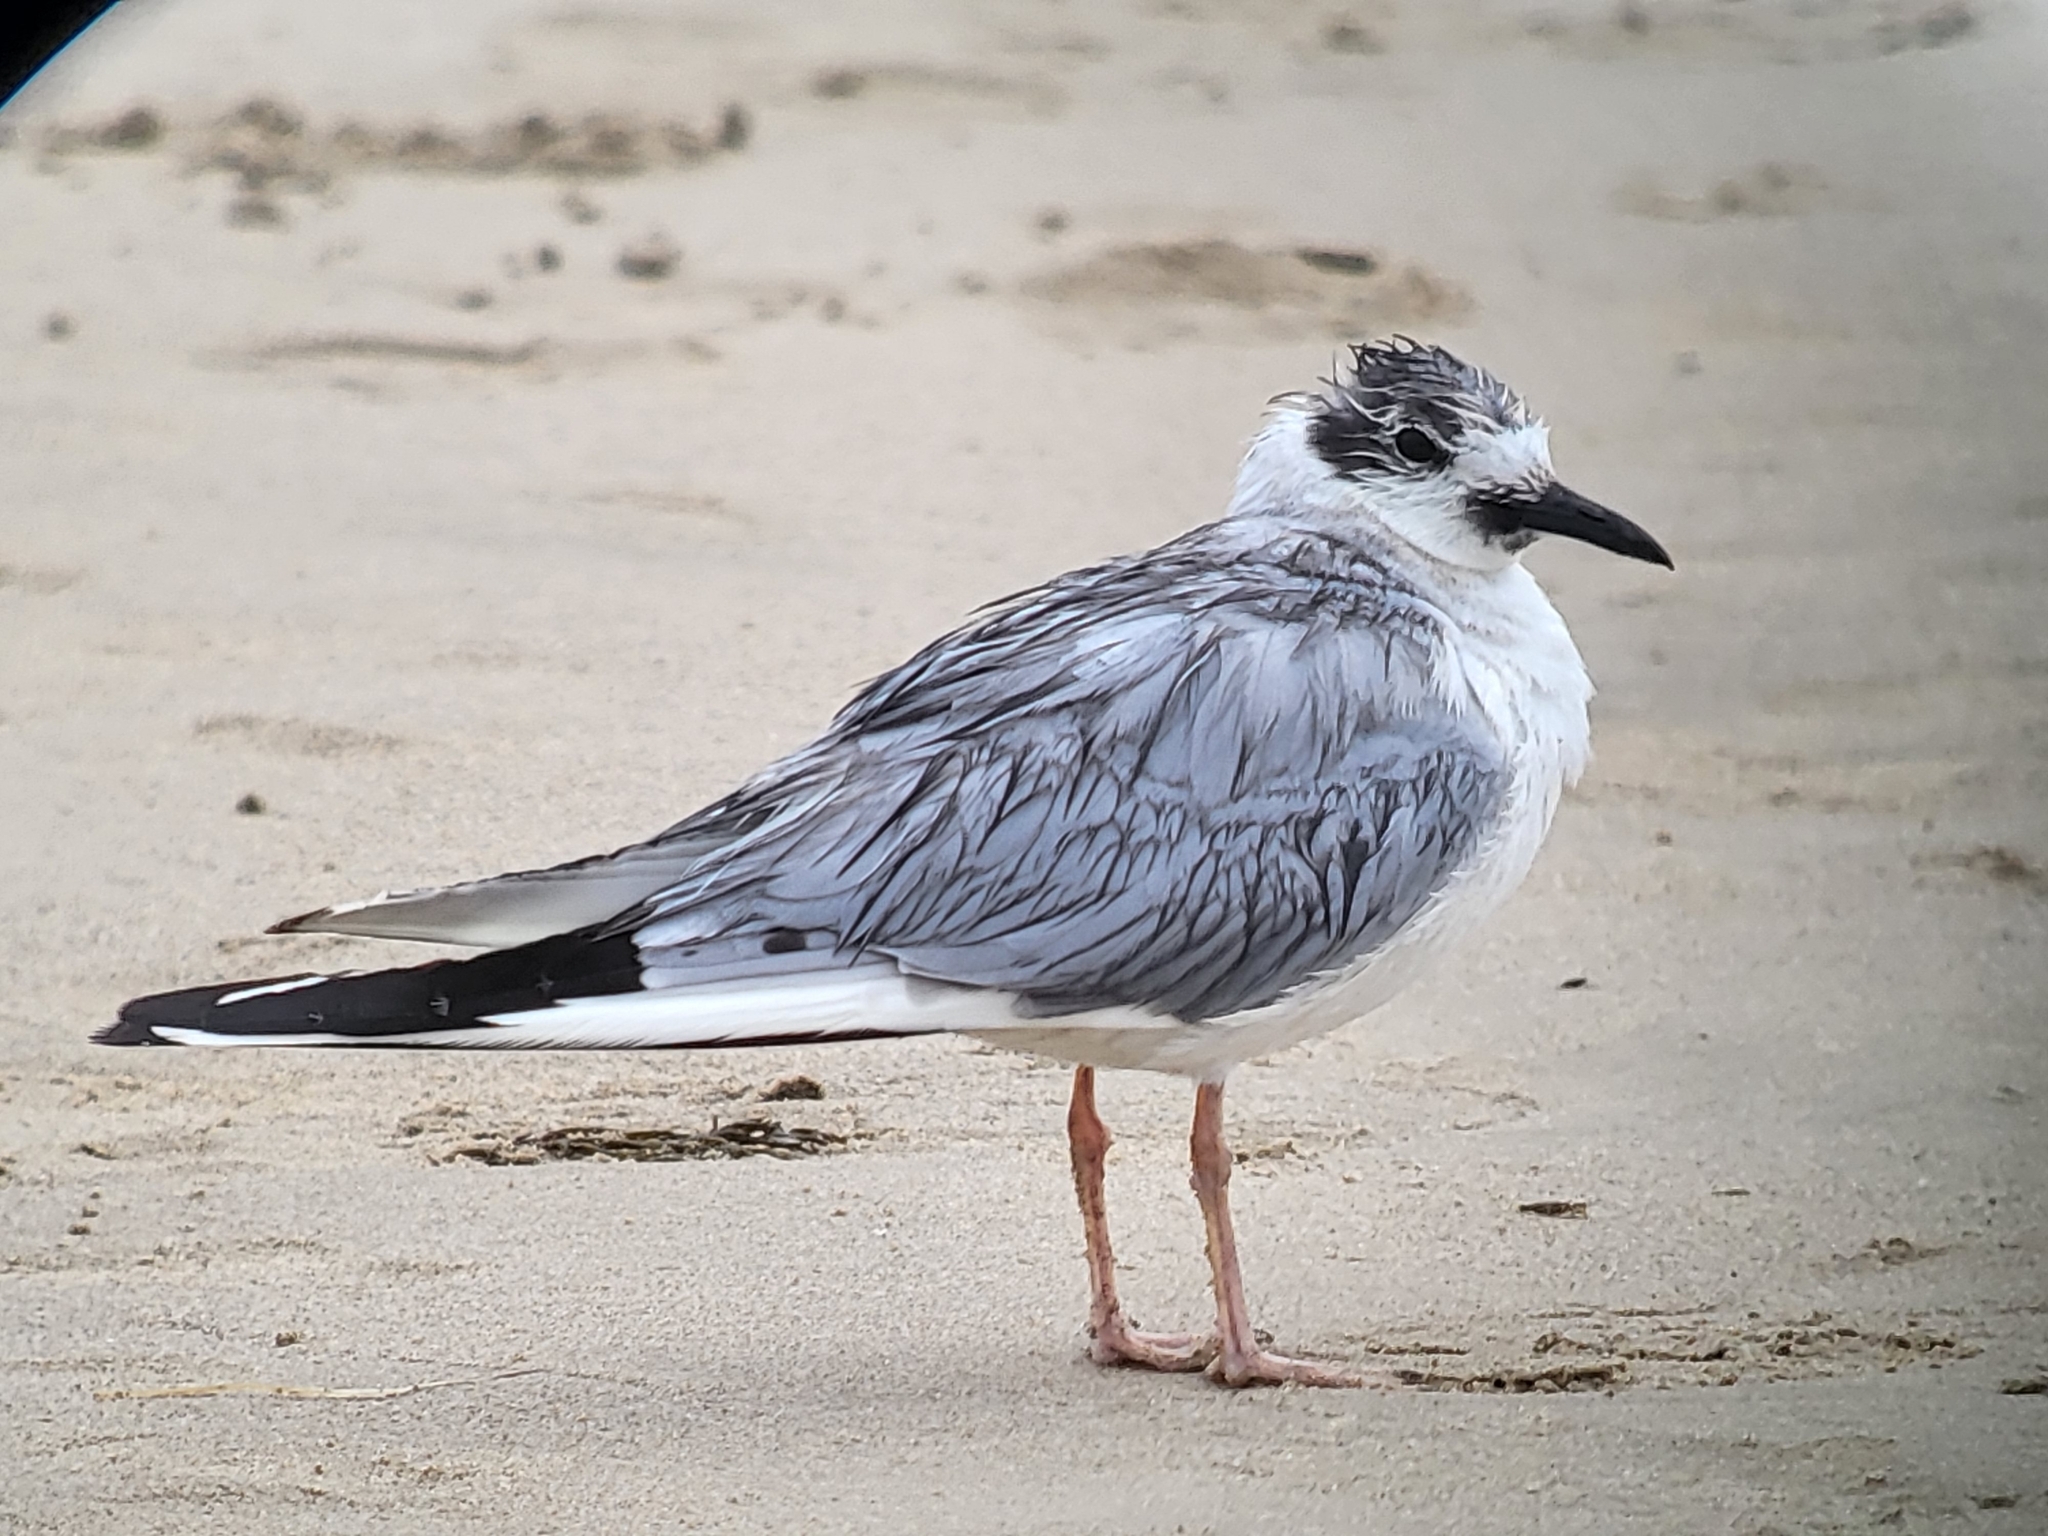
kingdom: Animalia
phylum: Chordata
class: Aves
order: Charadriiformes
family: Laridae
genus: Chroicocephalus
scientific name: Chroicocephalus philadelphia
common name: Bonaparte's gull
